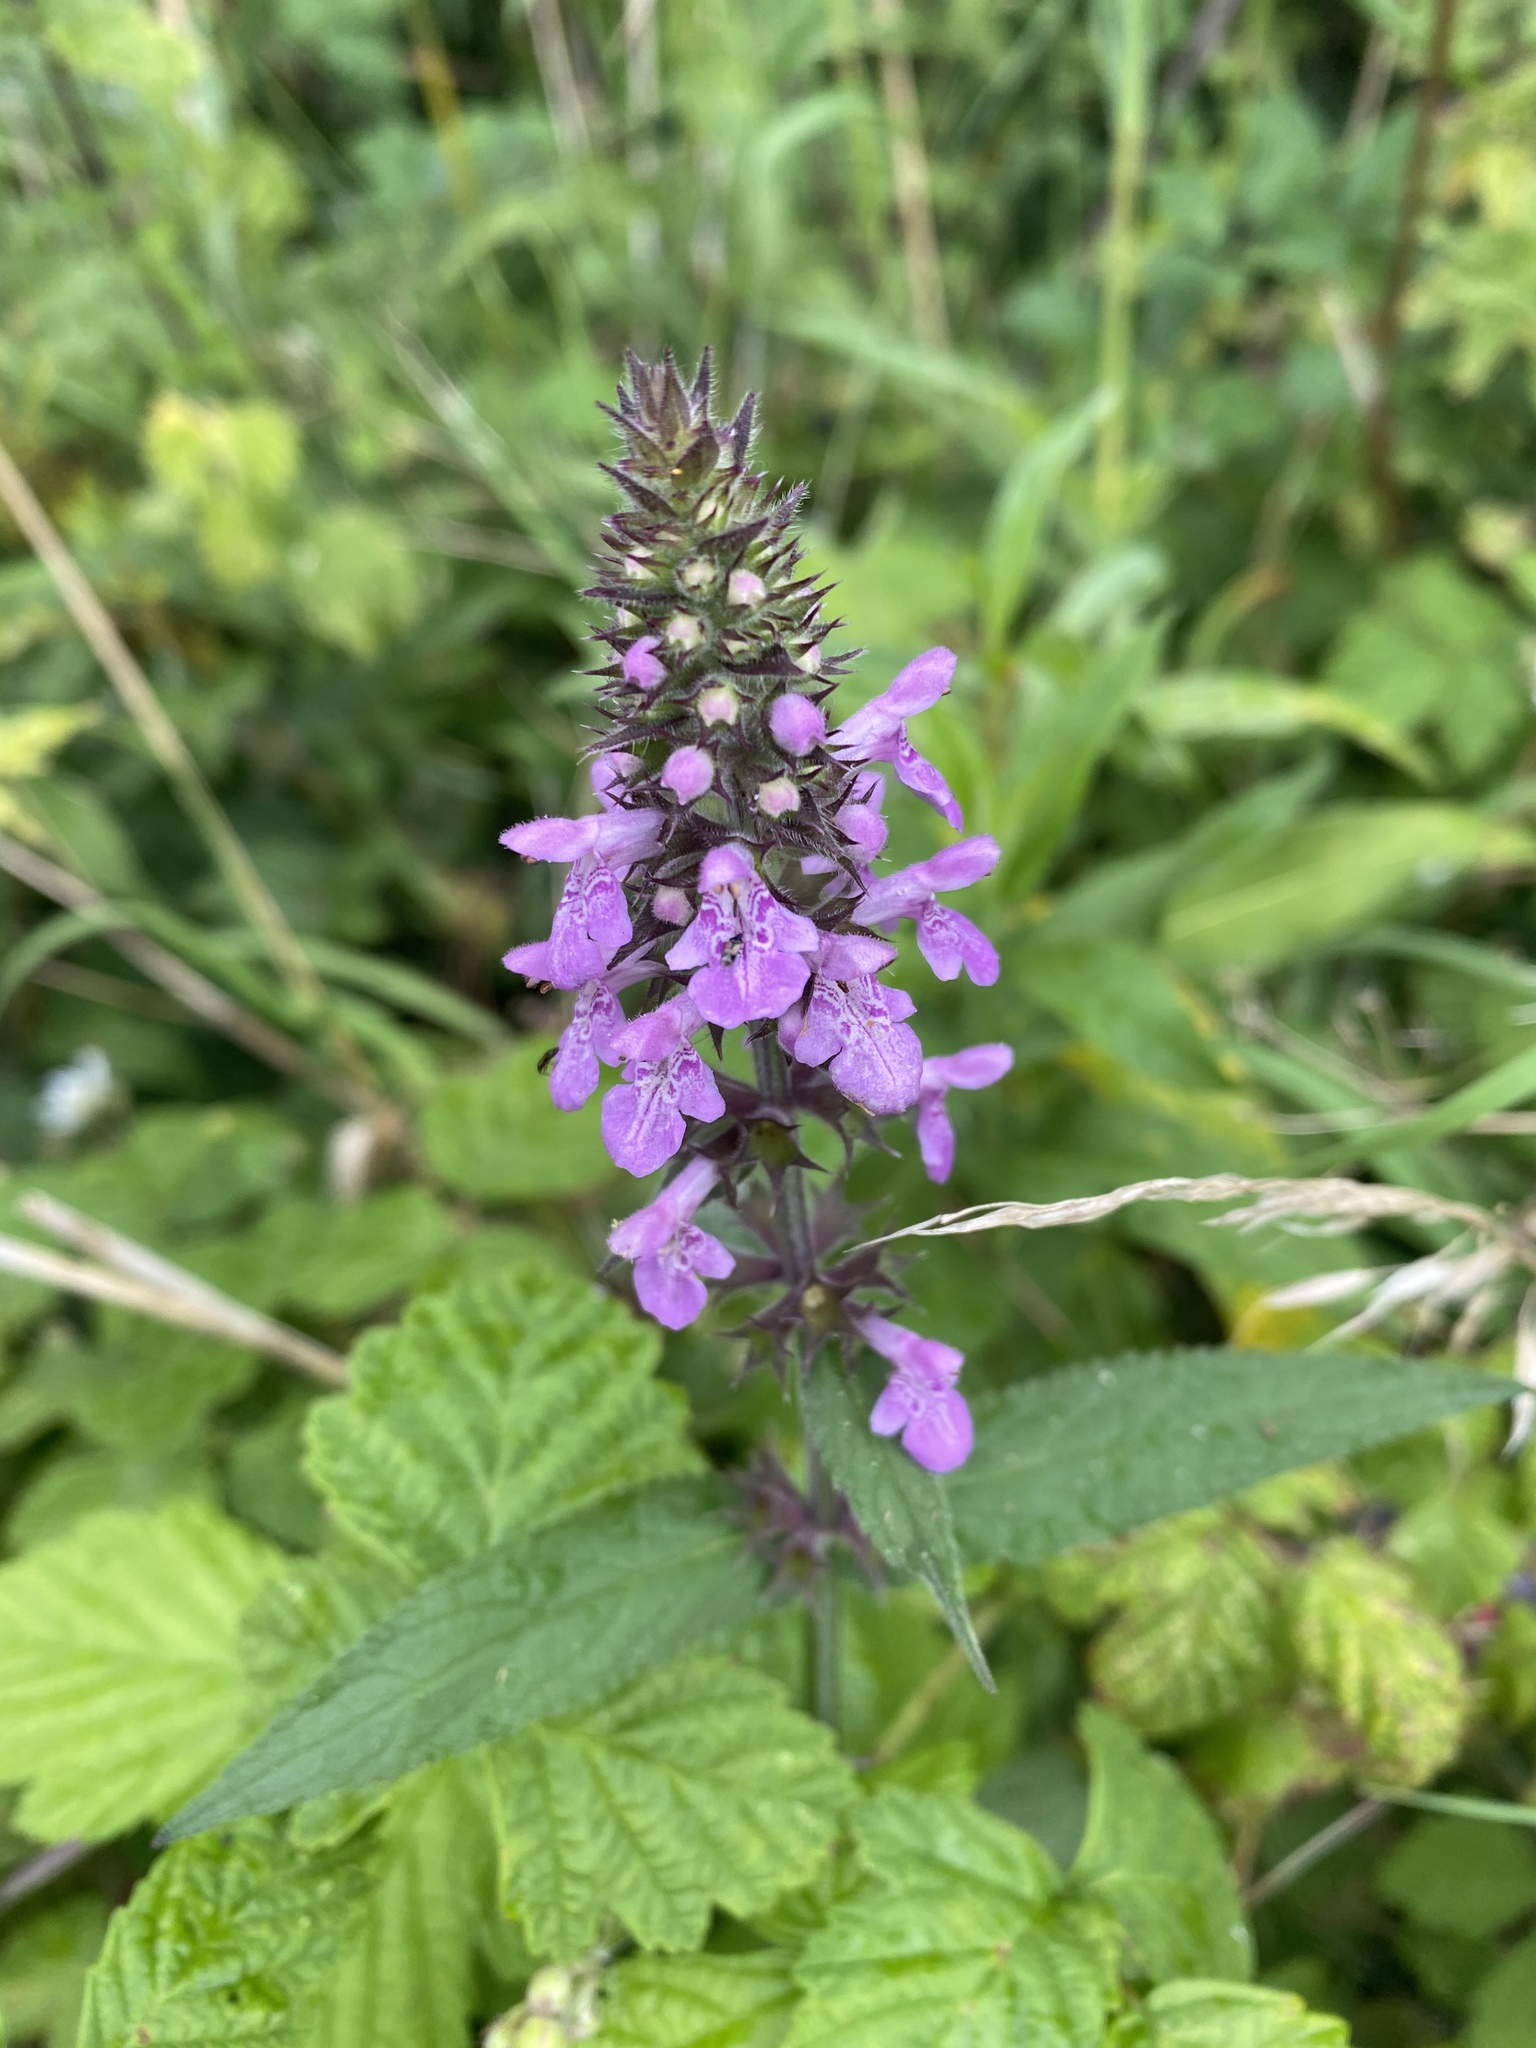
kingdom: Plantae
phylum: Tracheophyta
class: Magnoliopsida
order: Lamiales
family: Lamiaceae
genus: Stachys
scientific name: Stachys palustris
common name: Marsh woundwort
